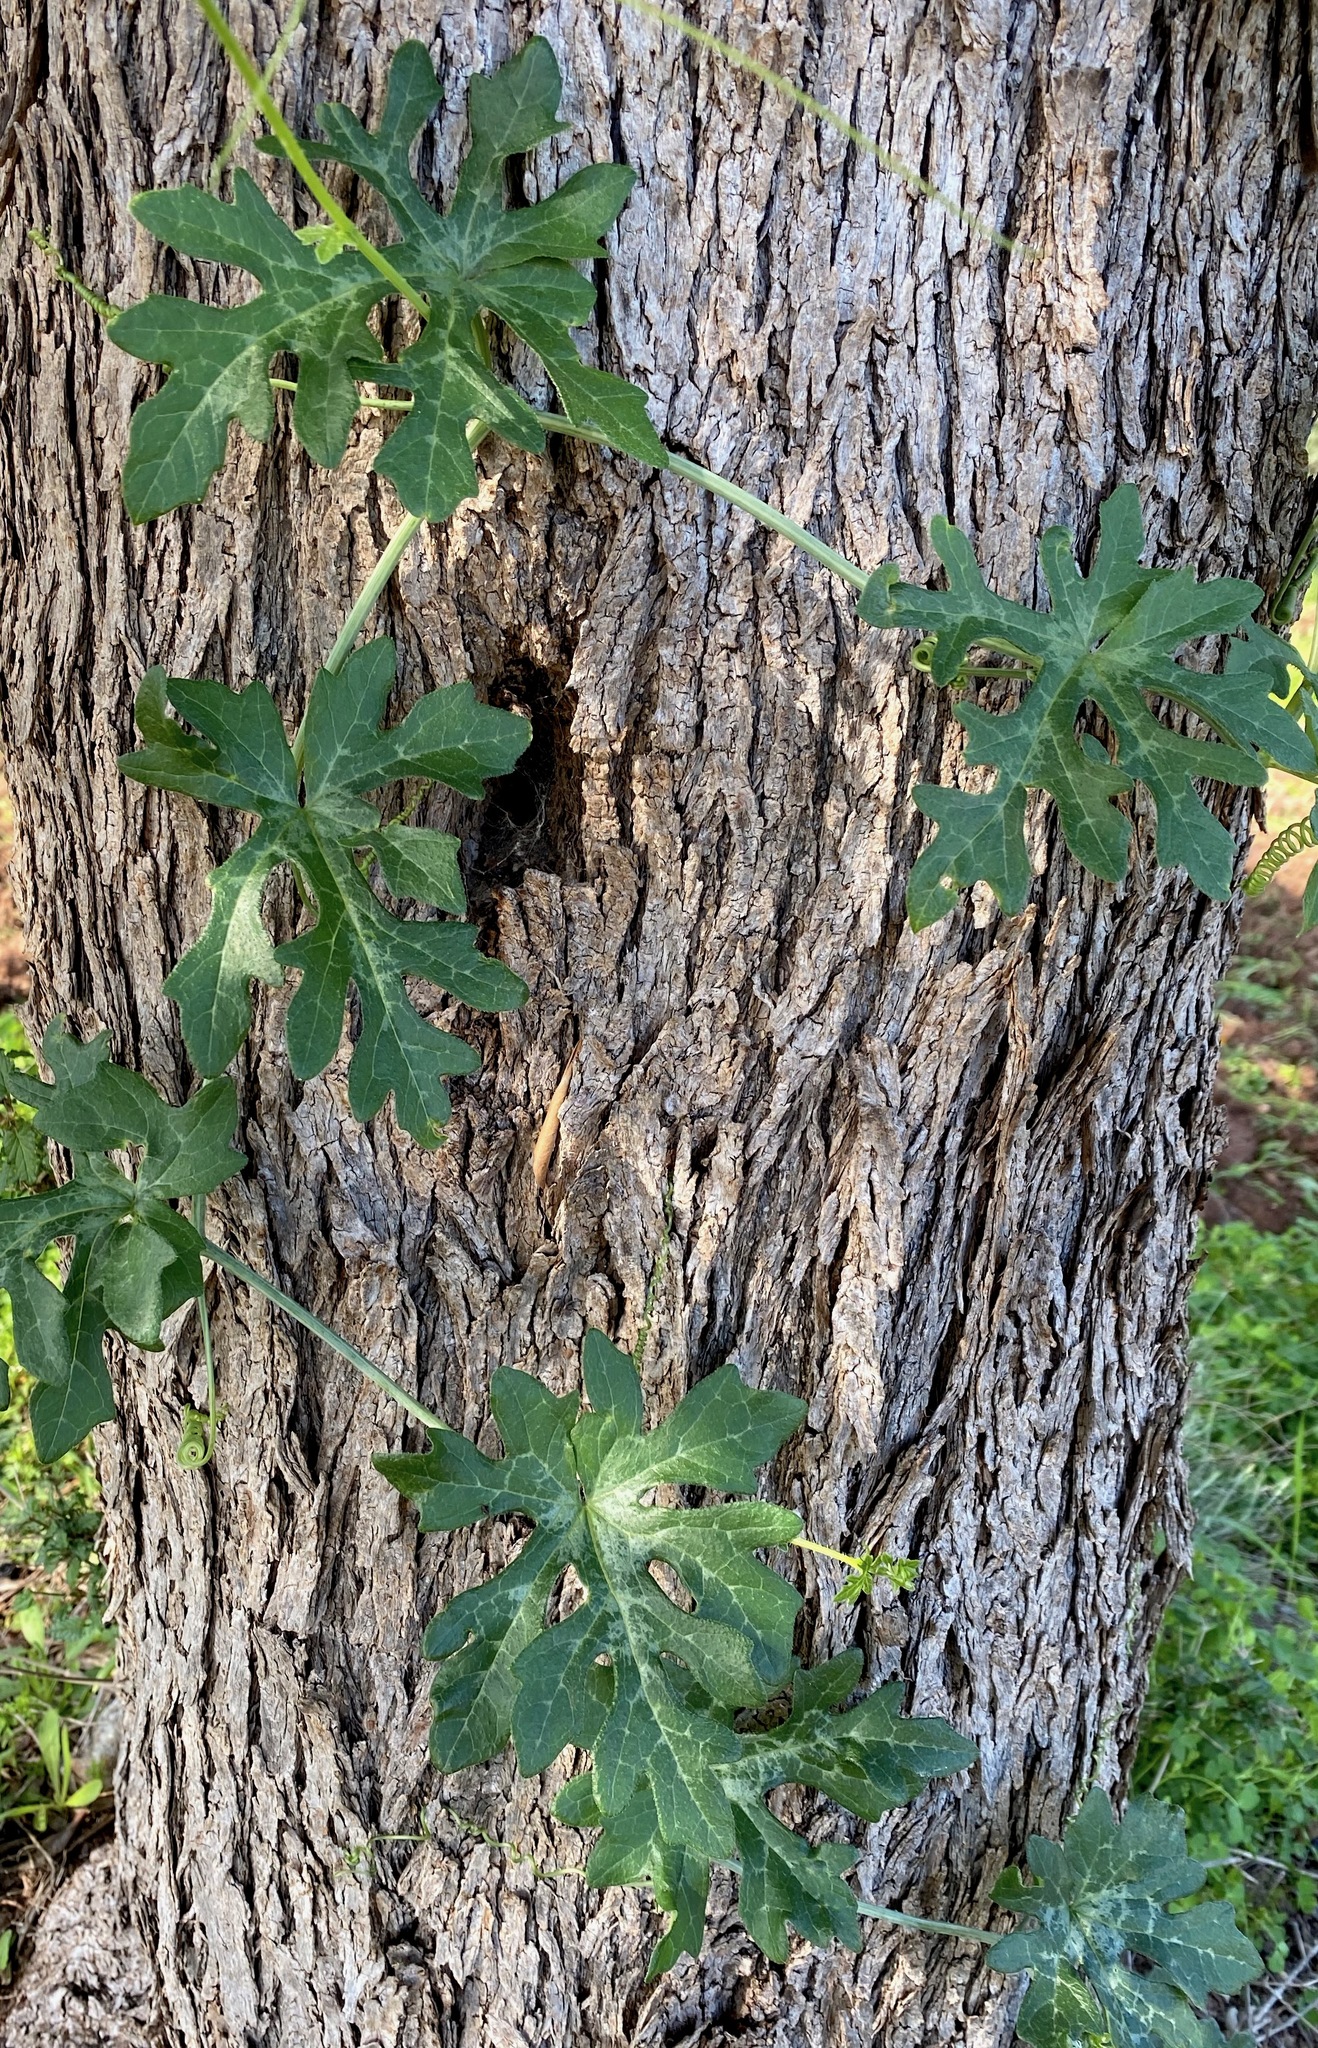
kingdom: Plantae
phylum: Tracheophyta
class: Magnoliopsida
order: Cucurbitales
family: Cucurbitaceae
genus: Bryonia
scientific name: Bryonia cretica
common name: Cretan bryony
